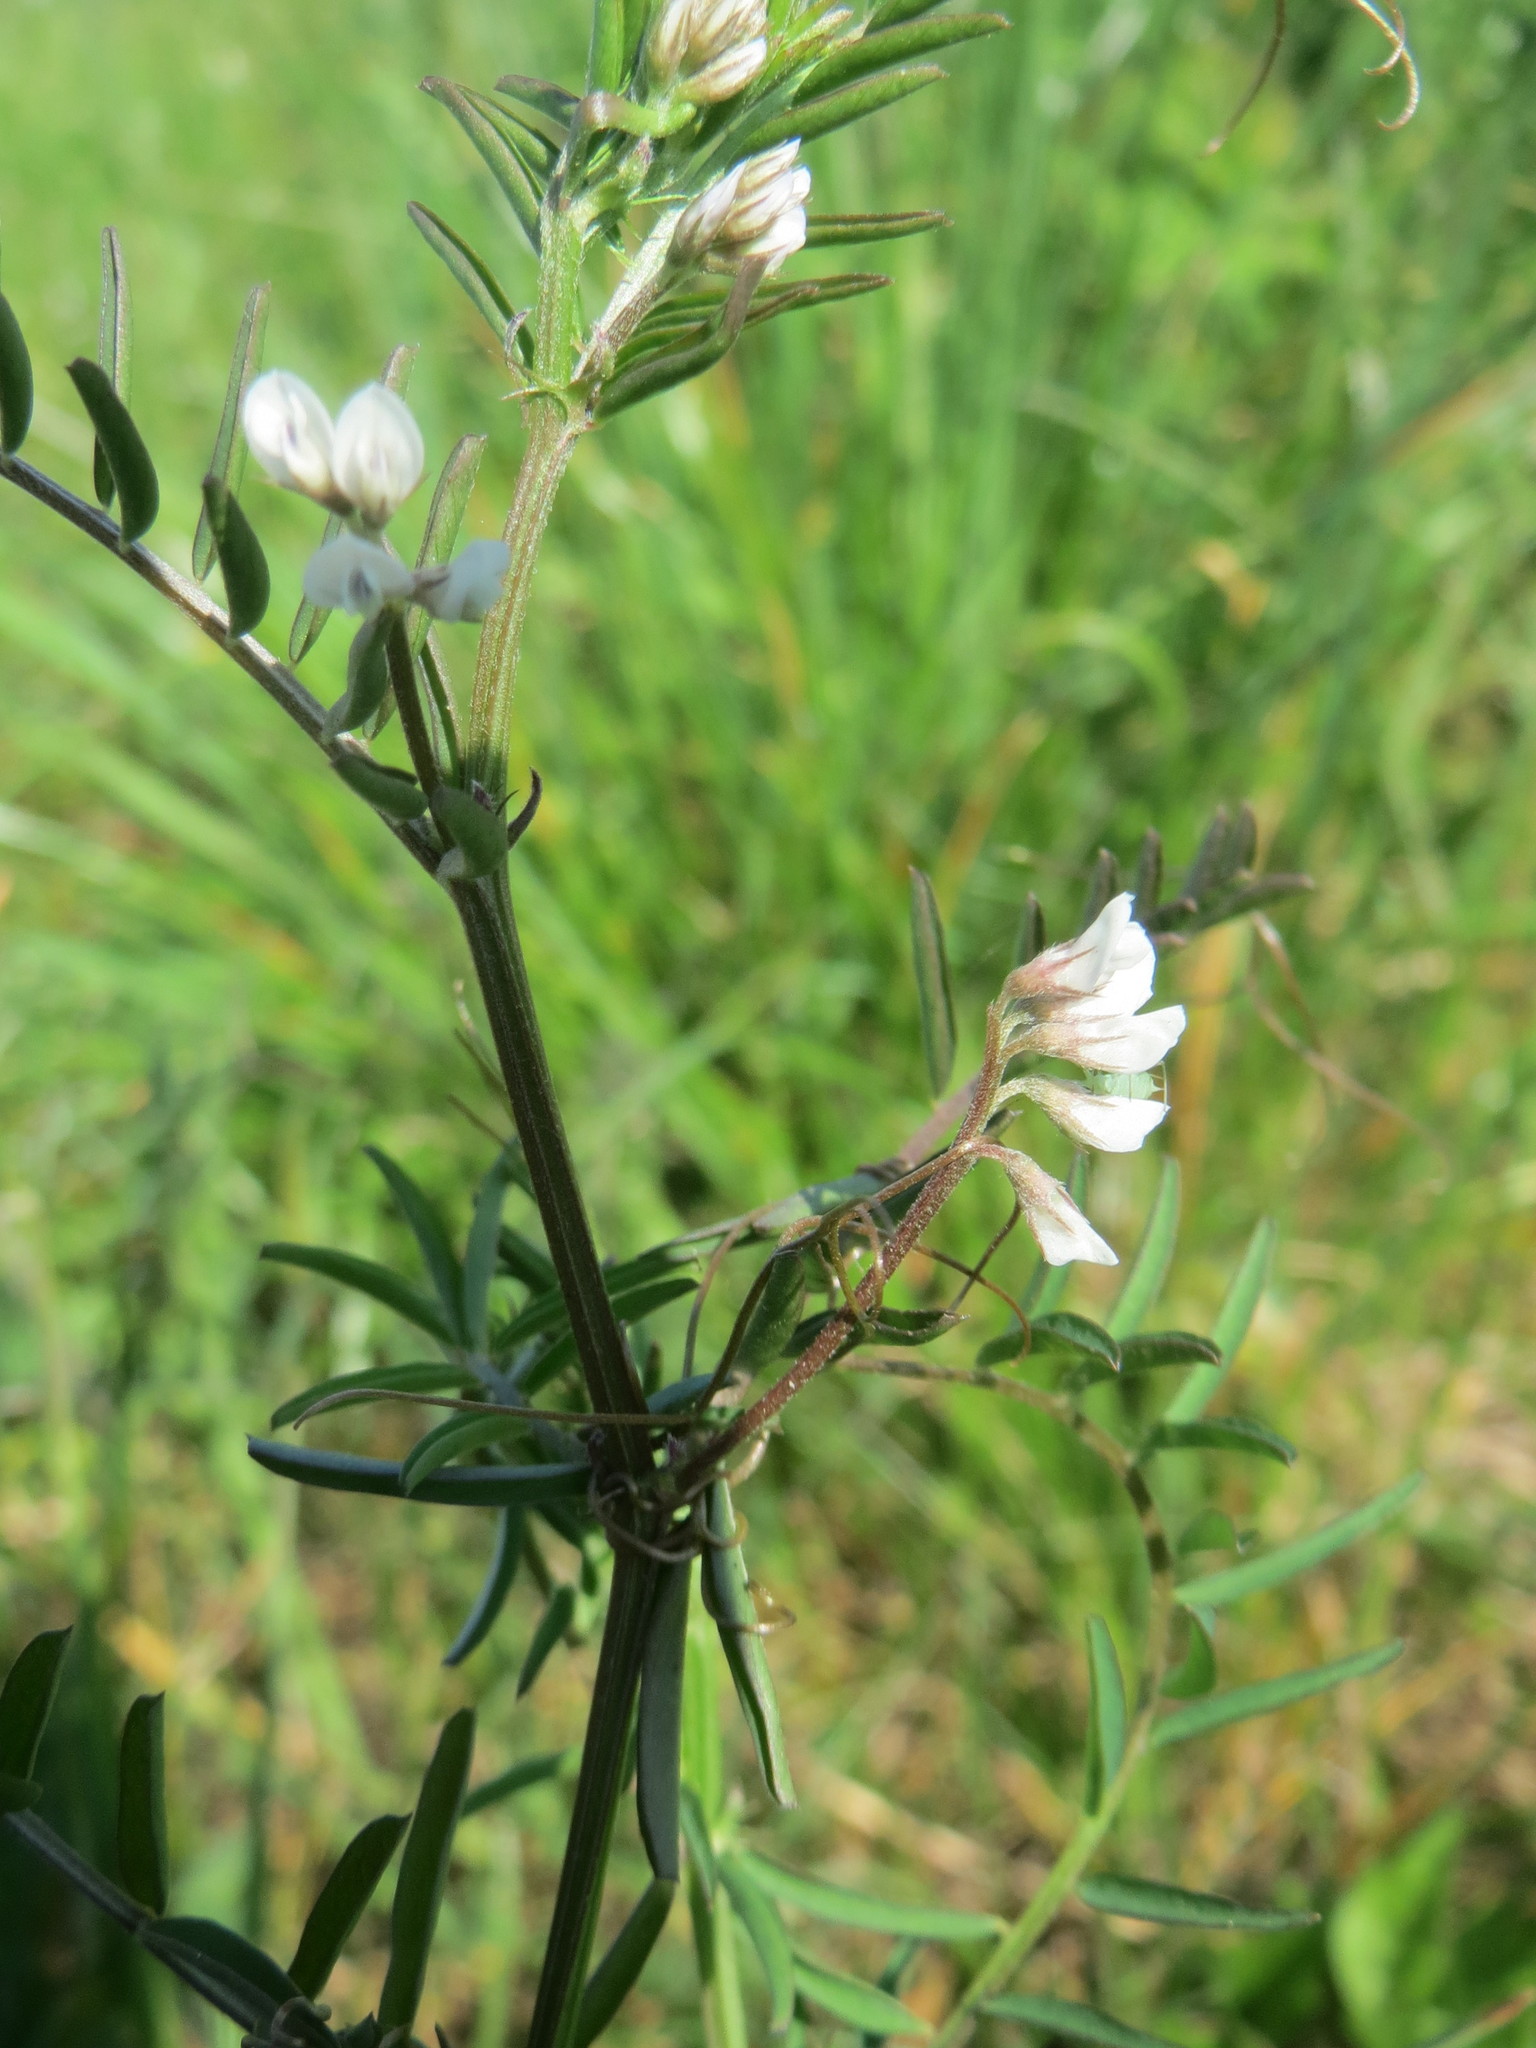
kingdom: Plantae
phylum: Tracheophyta
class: Magnoliopsida
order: Fabales
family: Fabaceae
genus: Vicia
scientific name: Vicia hirsuta
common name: Tiny vetch
